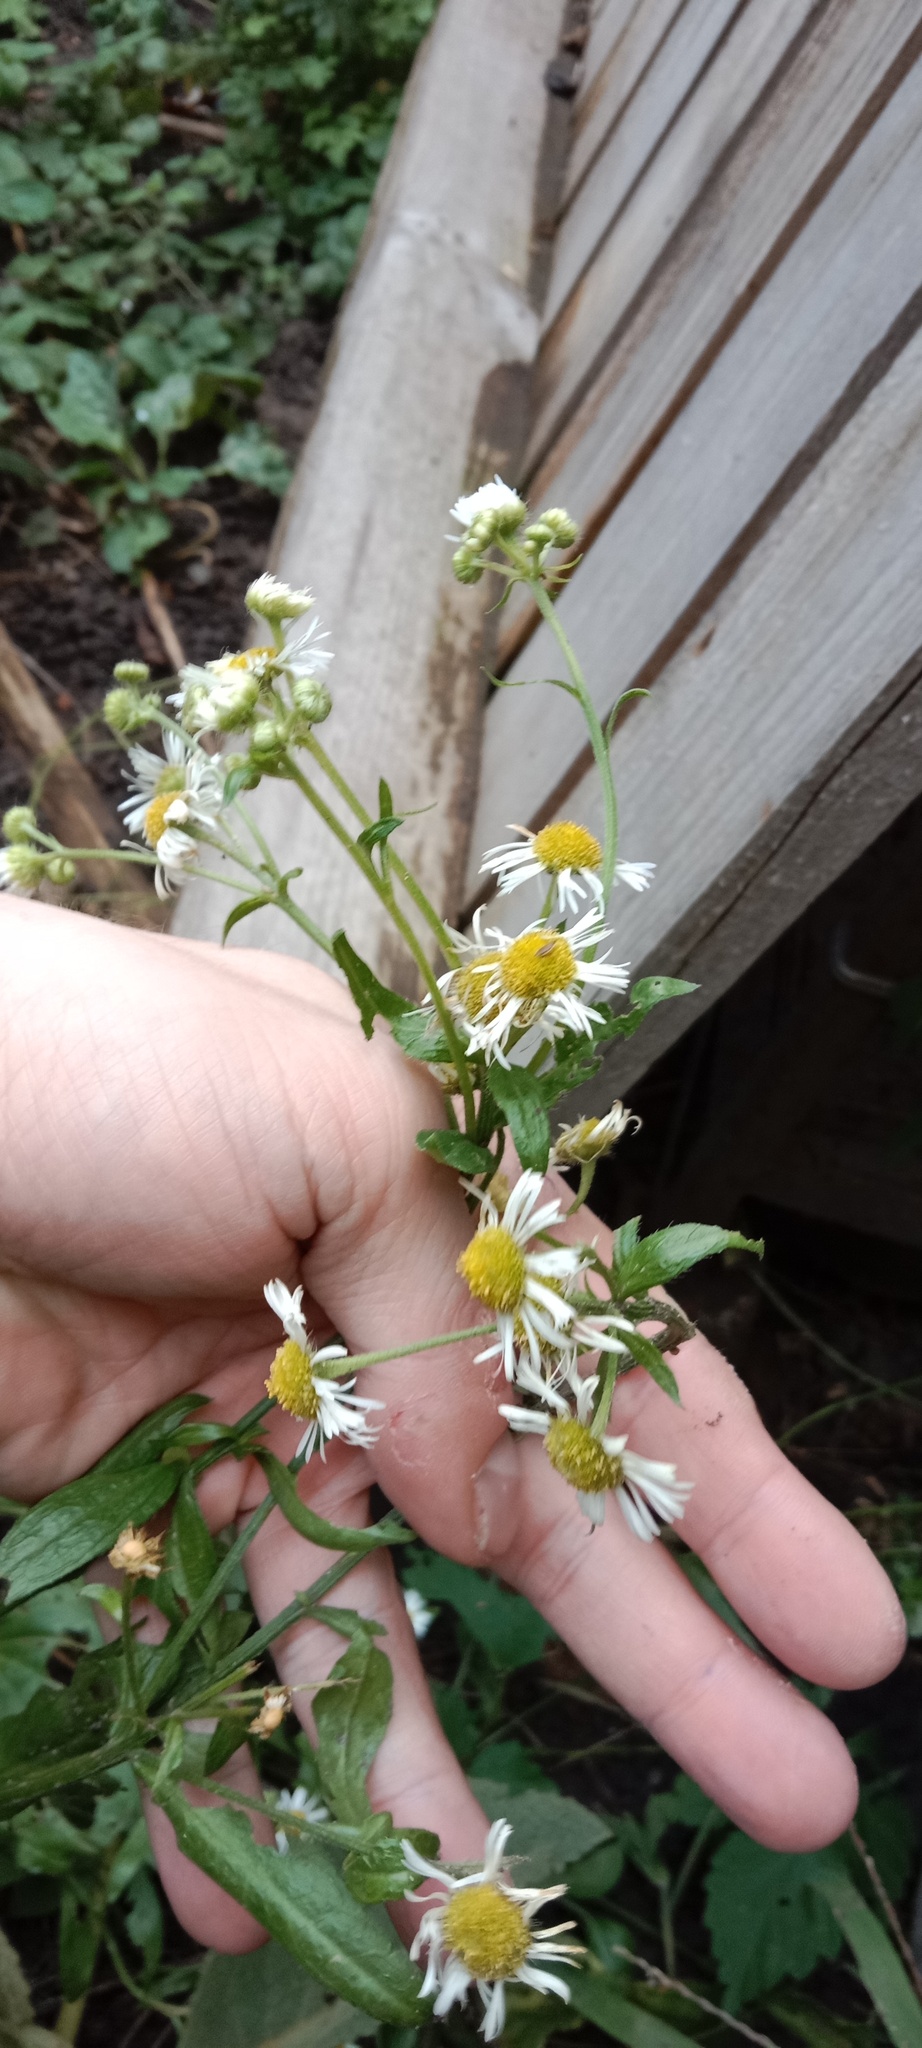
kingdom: Plantae
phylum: Tracheophyta
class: Magnoliopsida
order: Asterales
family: Asteraceae
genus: Erigeron
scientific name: Erigeron annuus
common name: Tall fleabane
